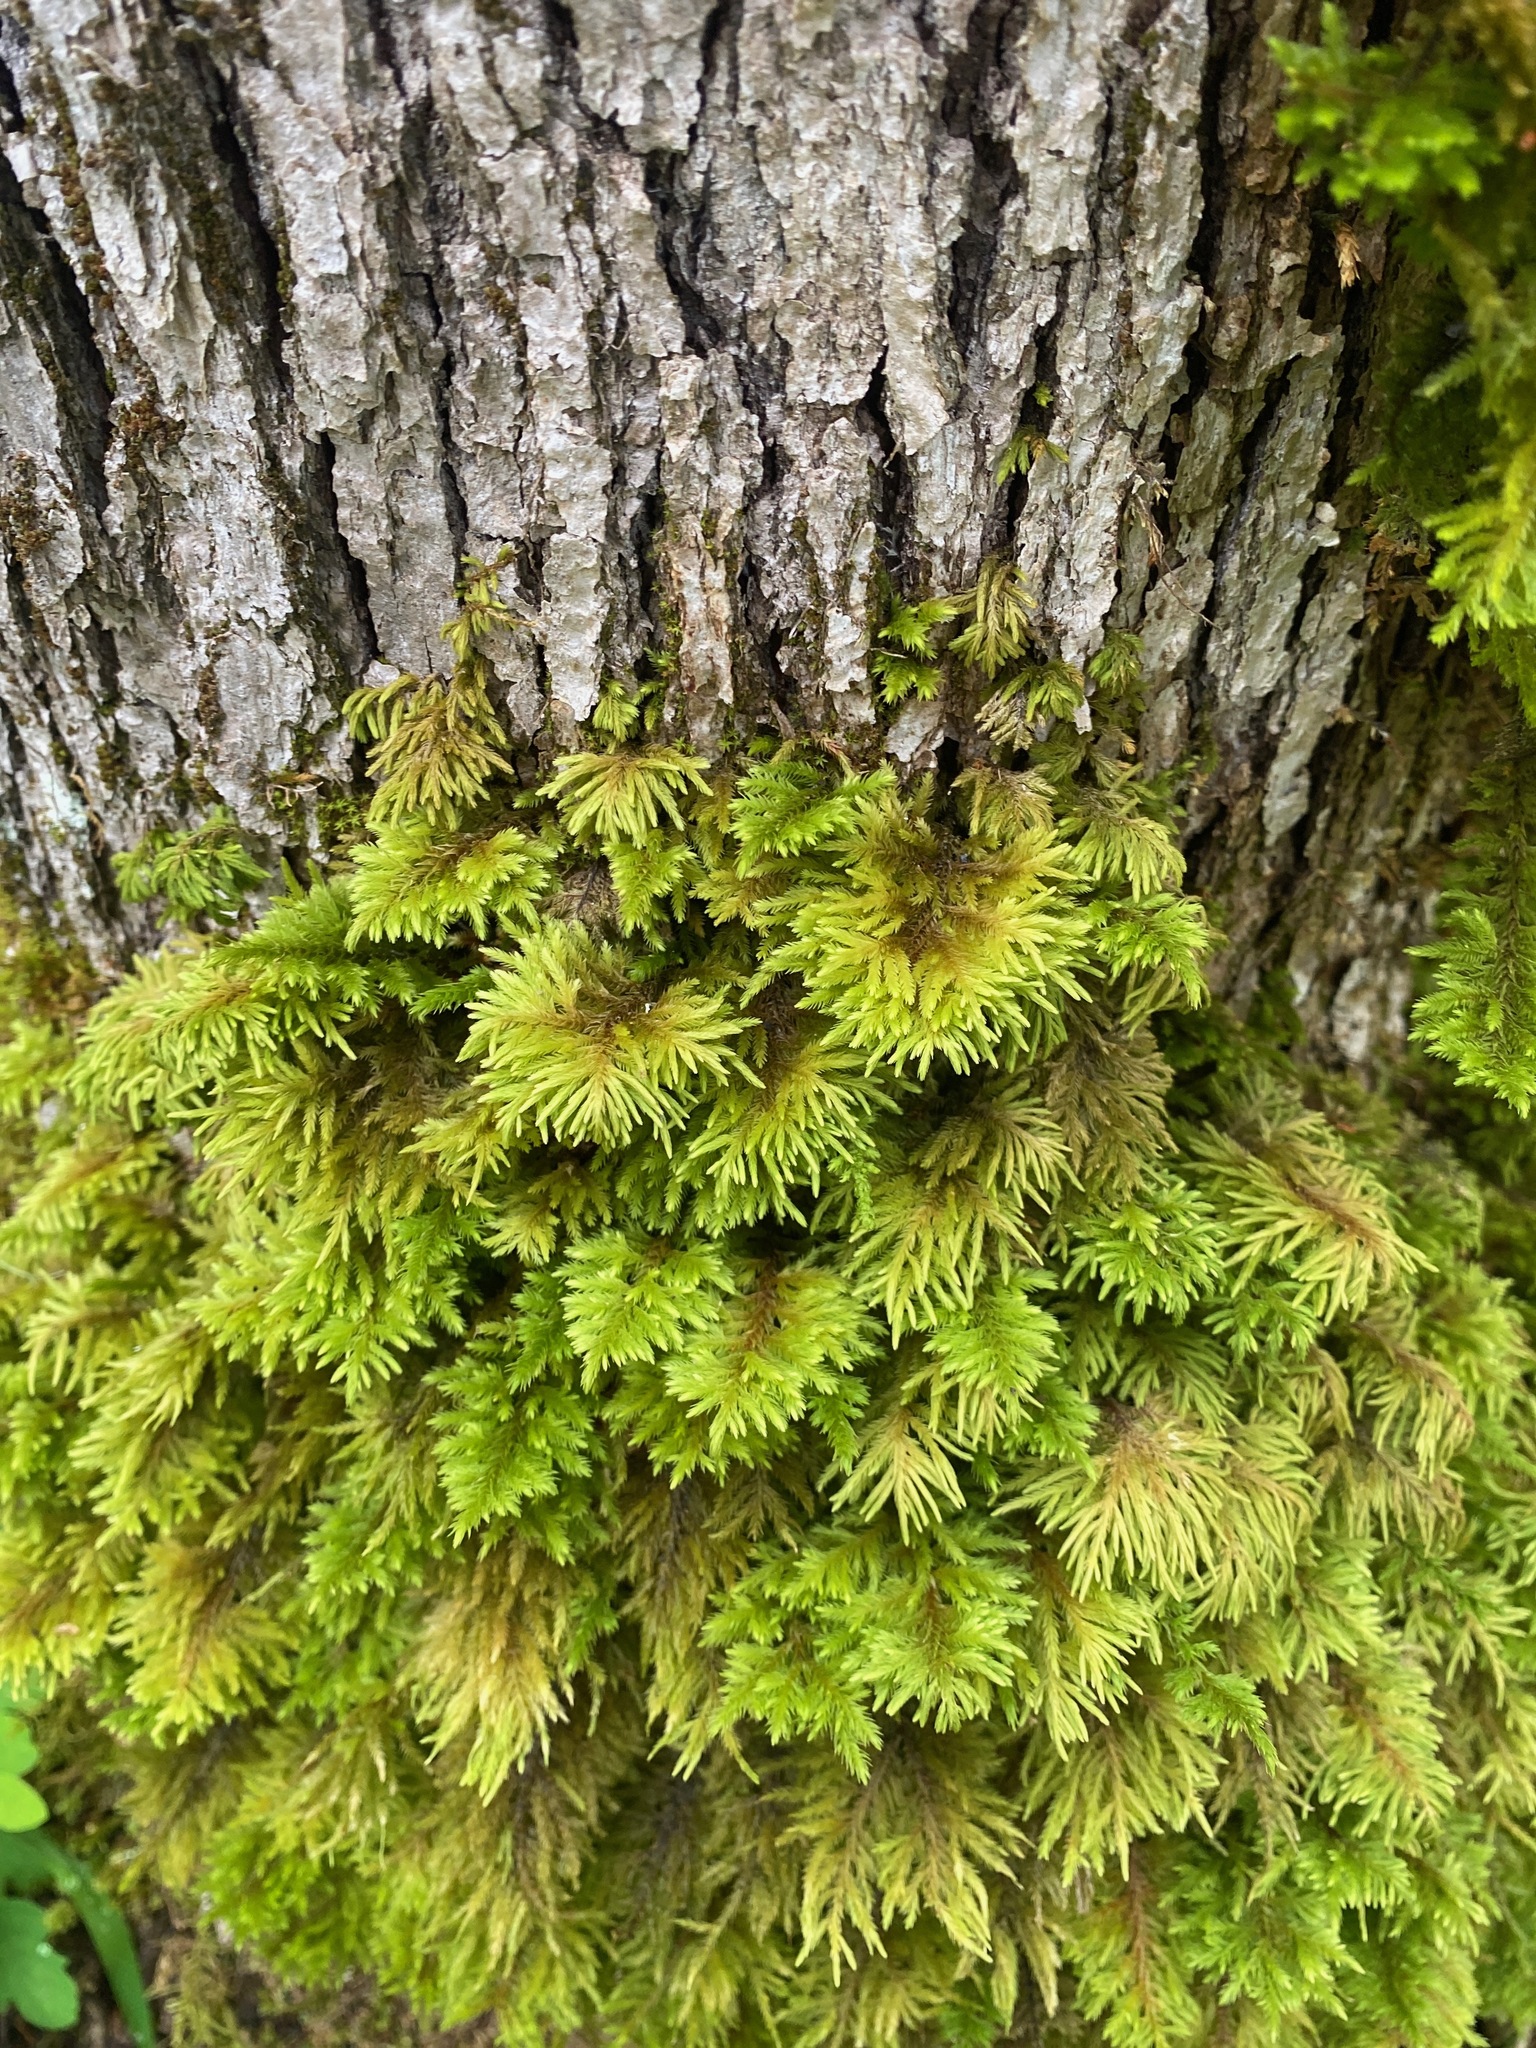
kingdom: Plantae
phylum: Bryophyta
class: Bryopsida
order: Hypnales
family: Cryphaeaceae
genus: Dendroalsia
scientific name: Dendroalsia abietina
